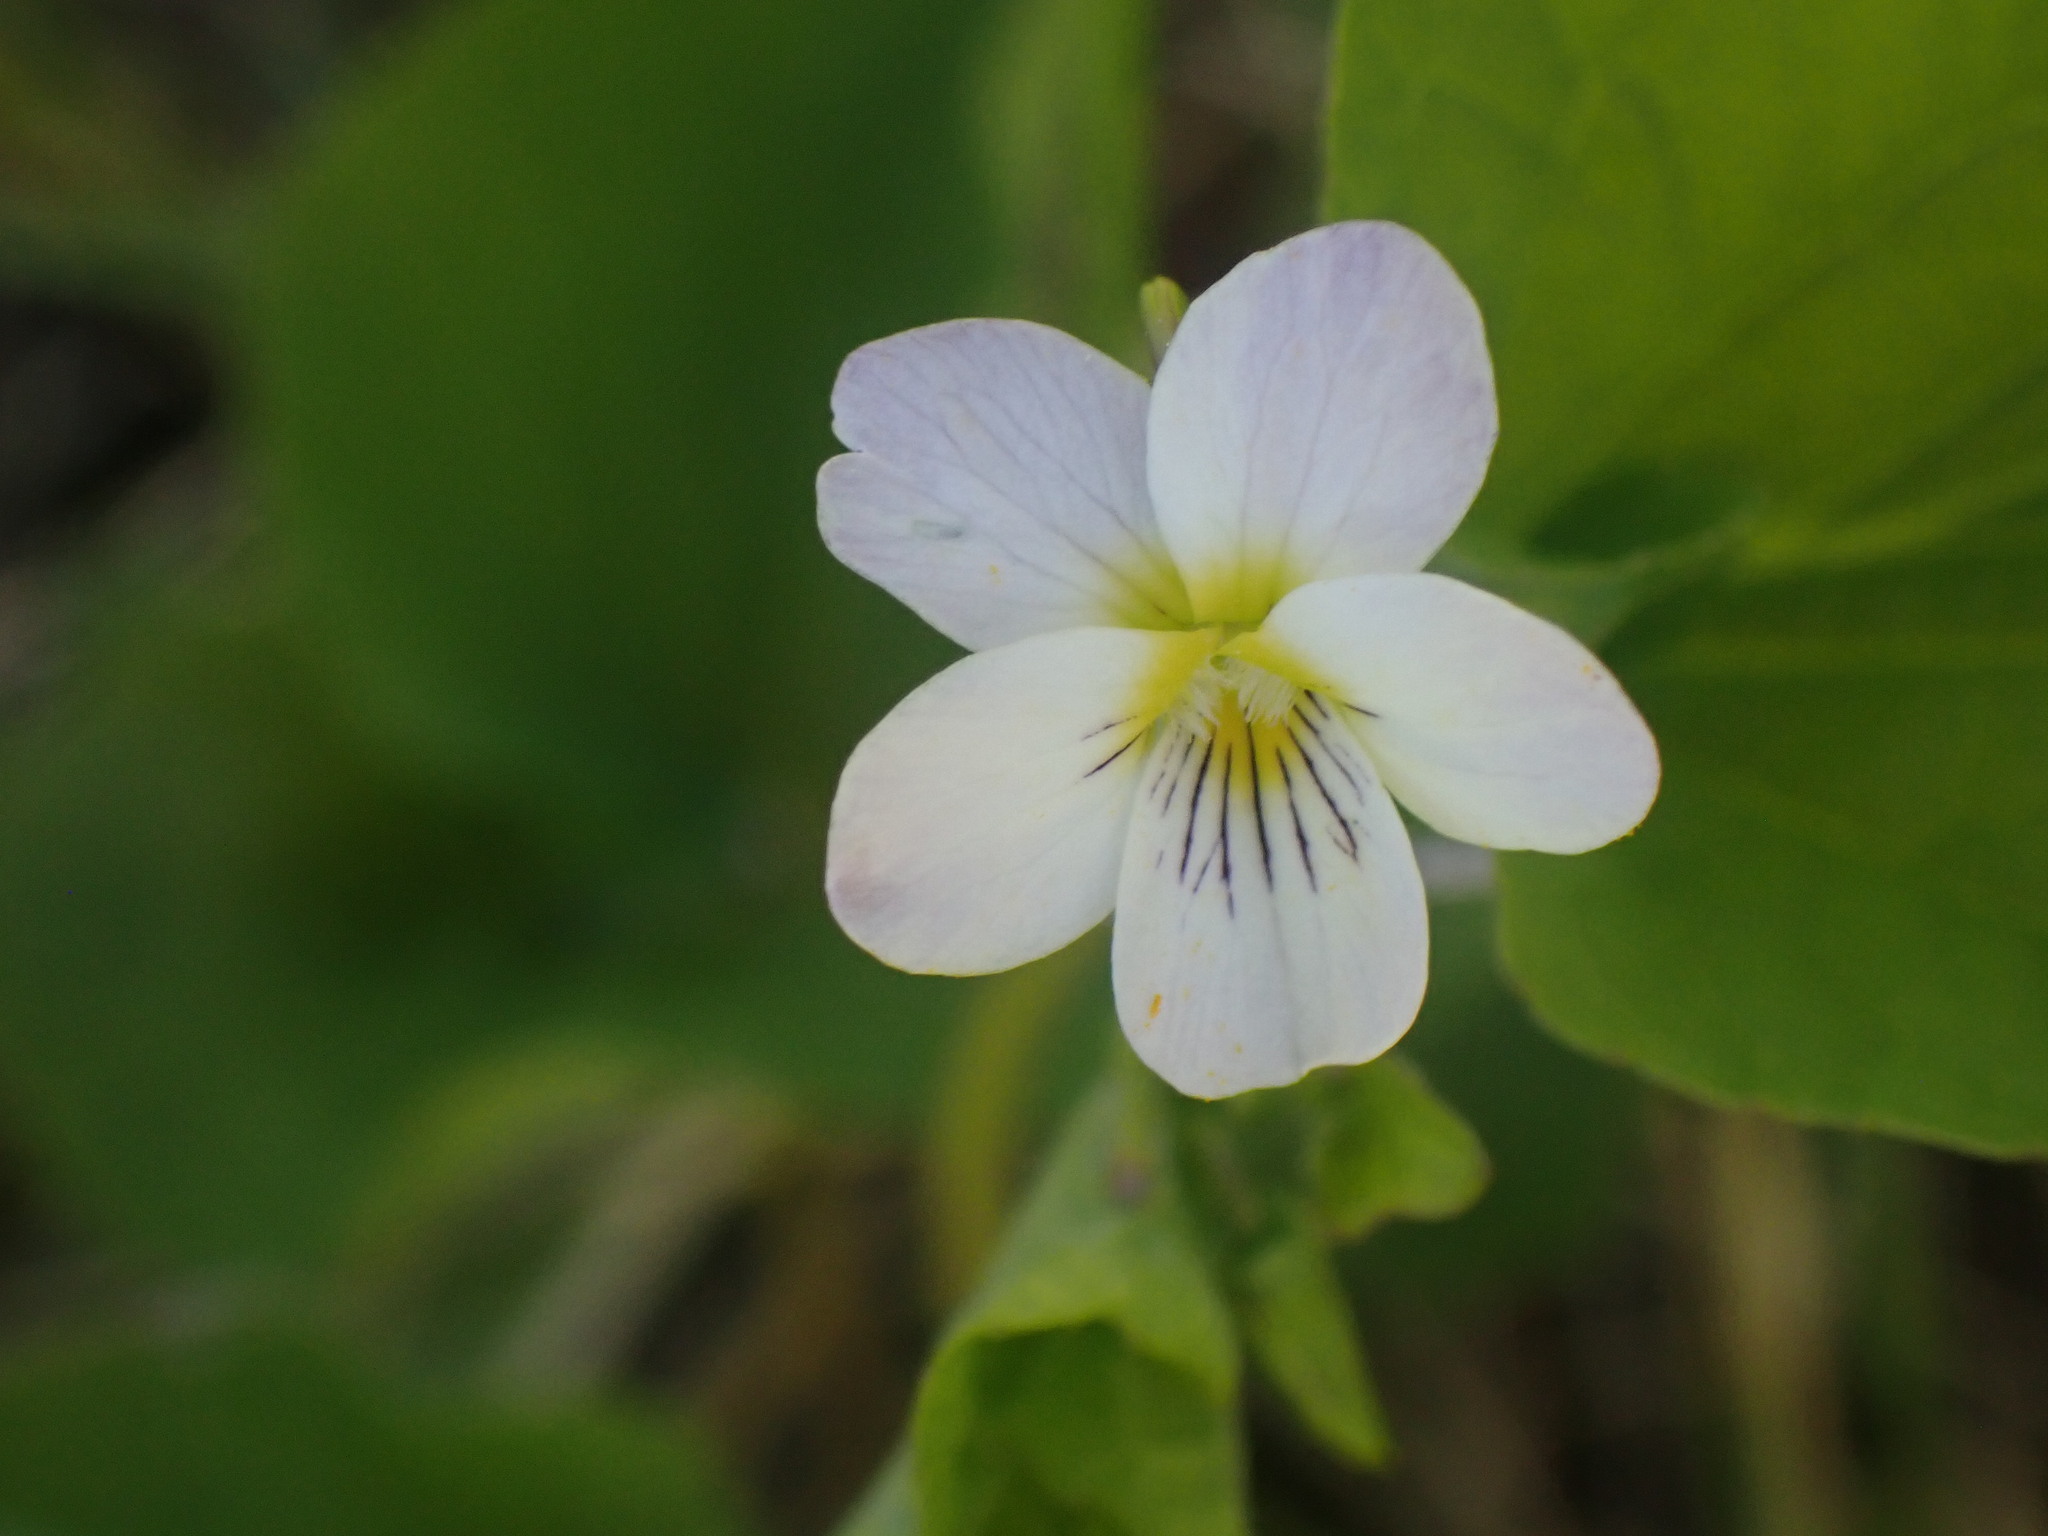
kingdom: Plantae
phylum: Tracheophyta
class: Magnoliopsida
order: Malpighiales
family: Violaceae
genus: Viola
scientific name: Viola canadensis
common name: Canada violet
